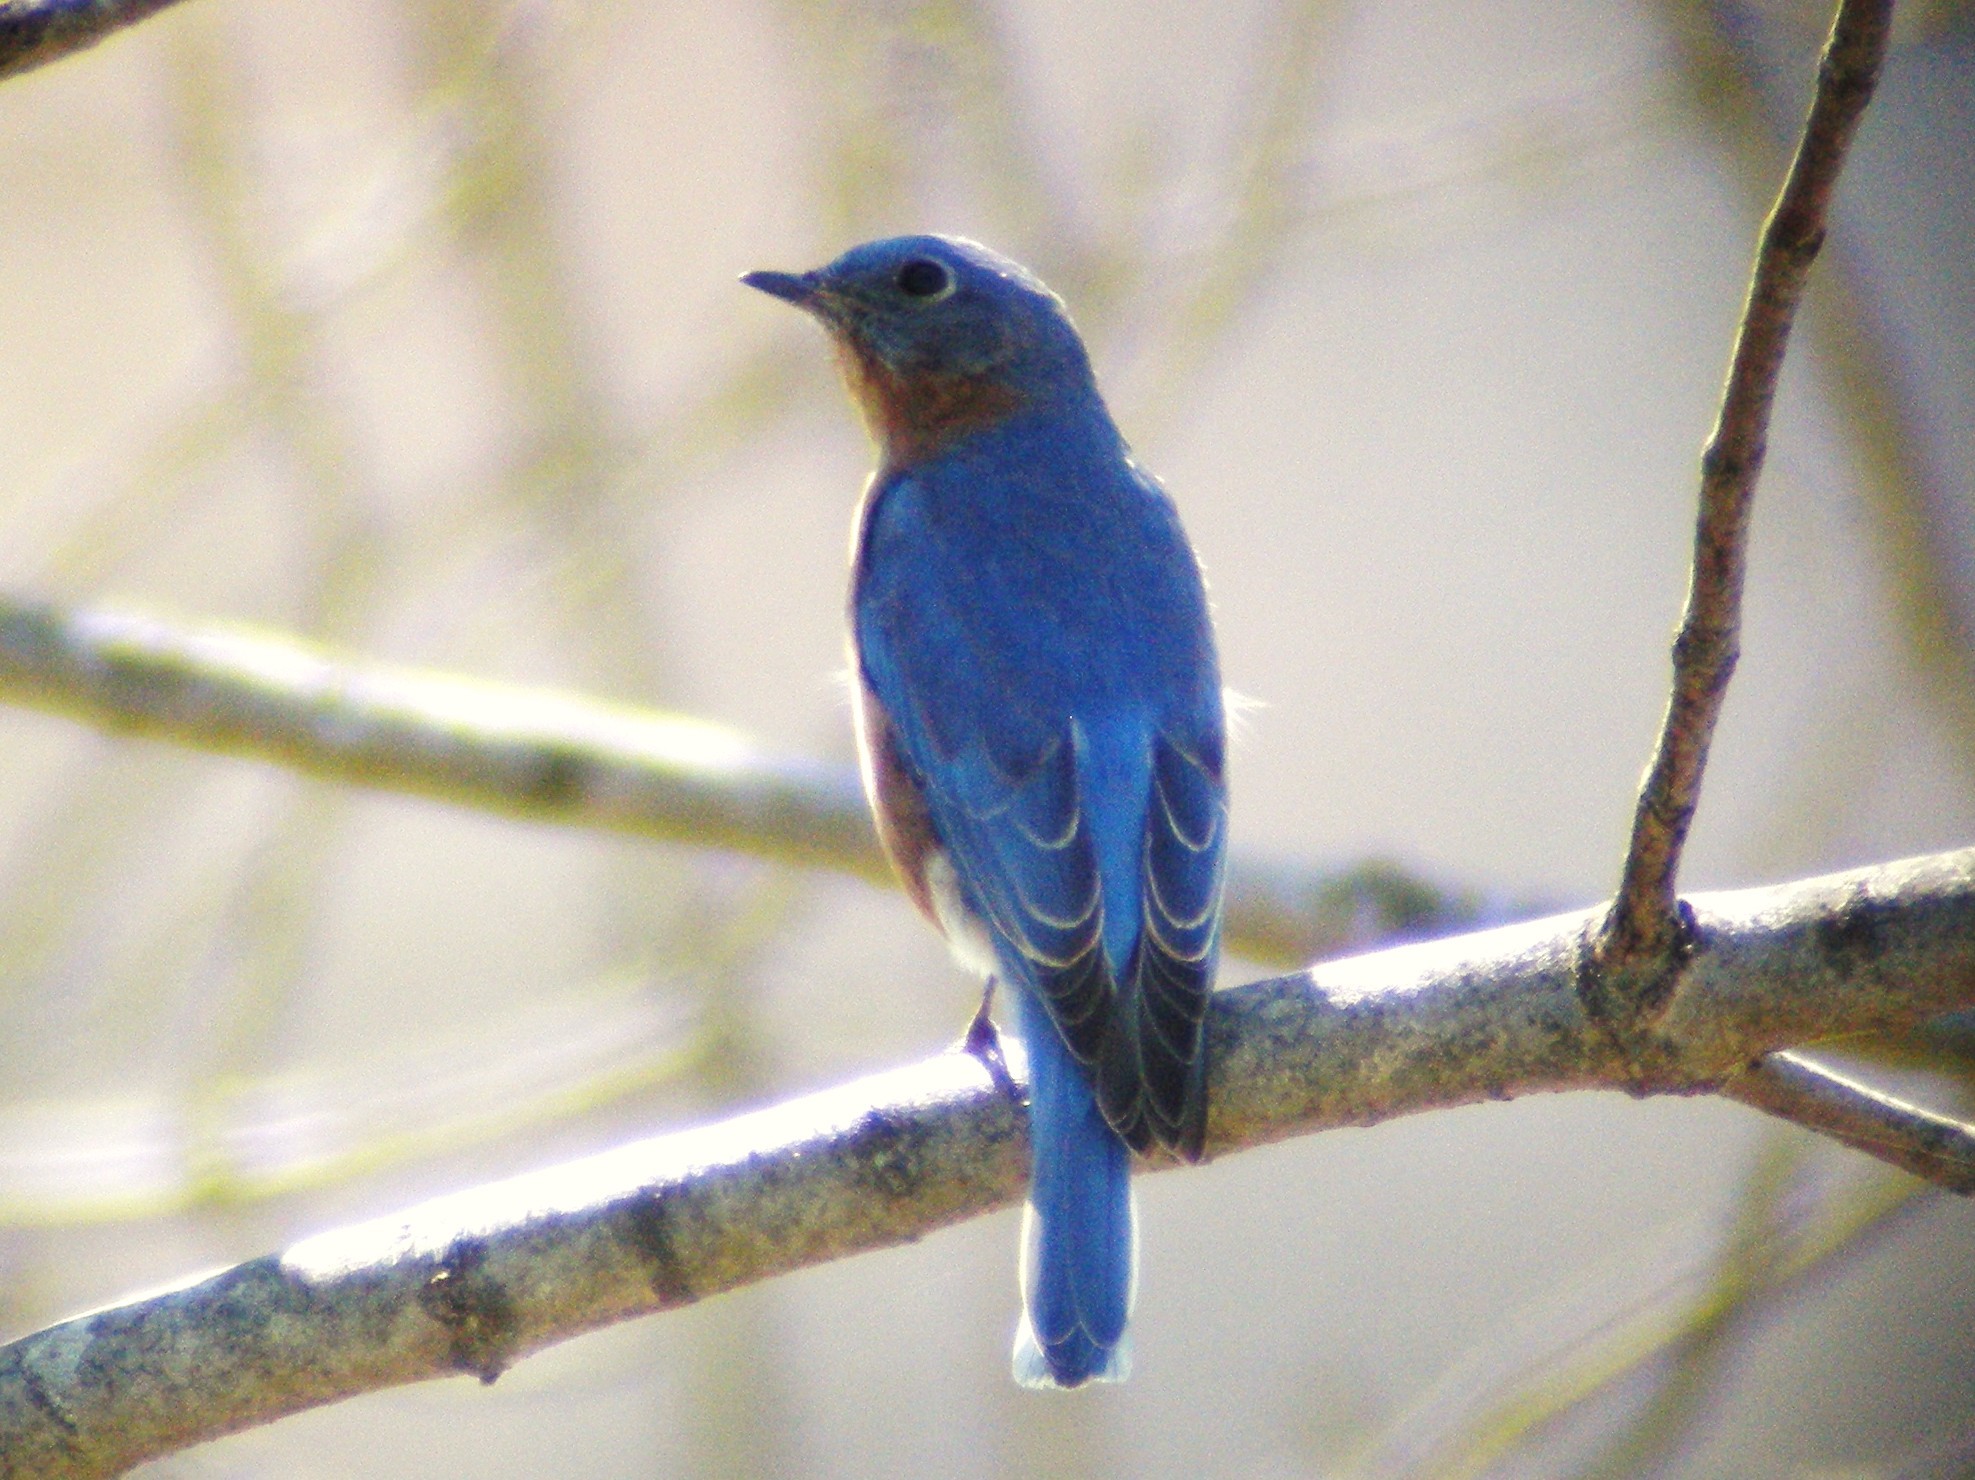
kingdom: Animalia
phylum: Chordata
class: Aves
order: Passeriformes
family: Turdidae
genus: Sialia
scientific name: Sialia sialis
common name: Eastern bluebird
